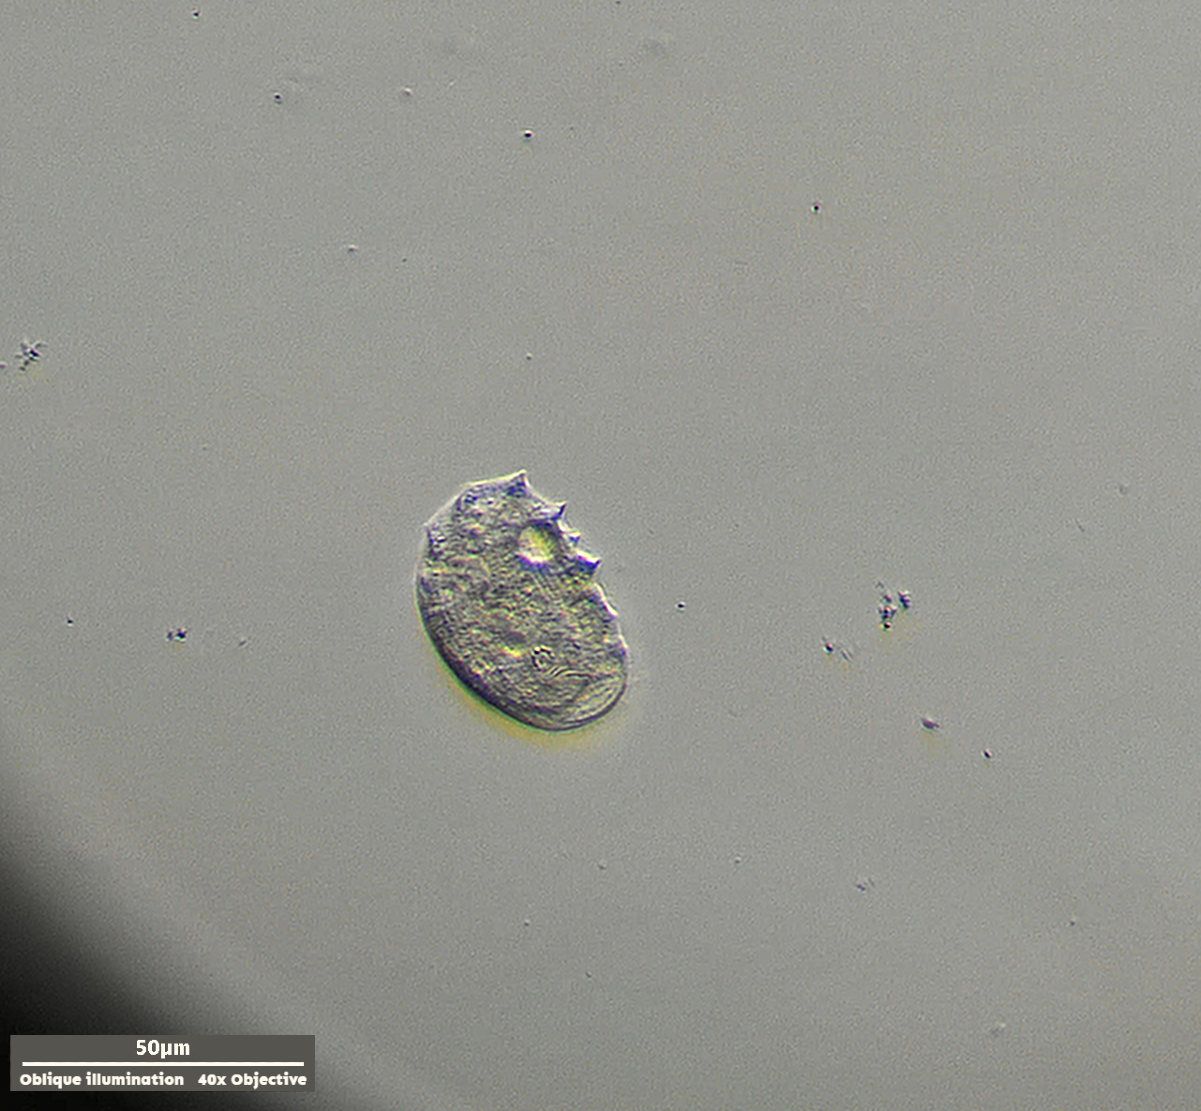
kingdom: Chromista
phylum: Ciliophora
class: Cyrtophoria
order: Cyrtophorida
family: Chilodonellidae
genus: Odontochlamys
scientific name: Odontochlamys gouraudi
